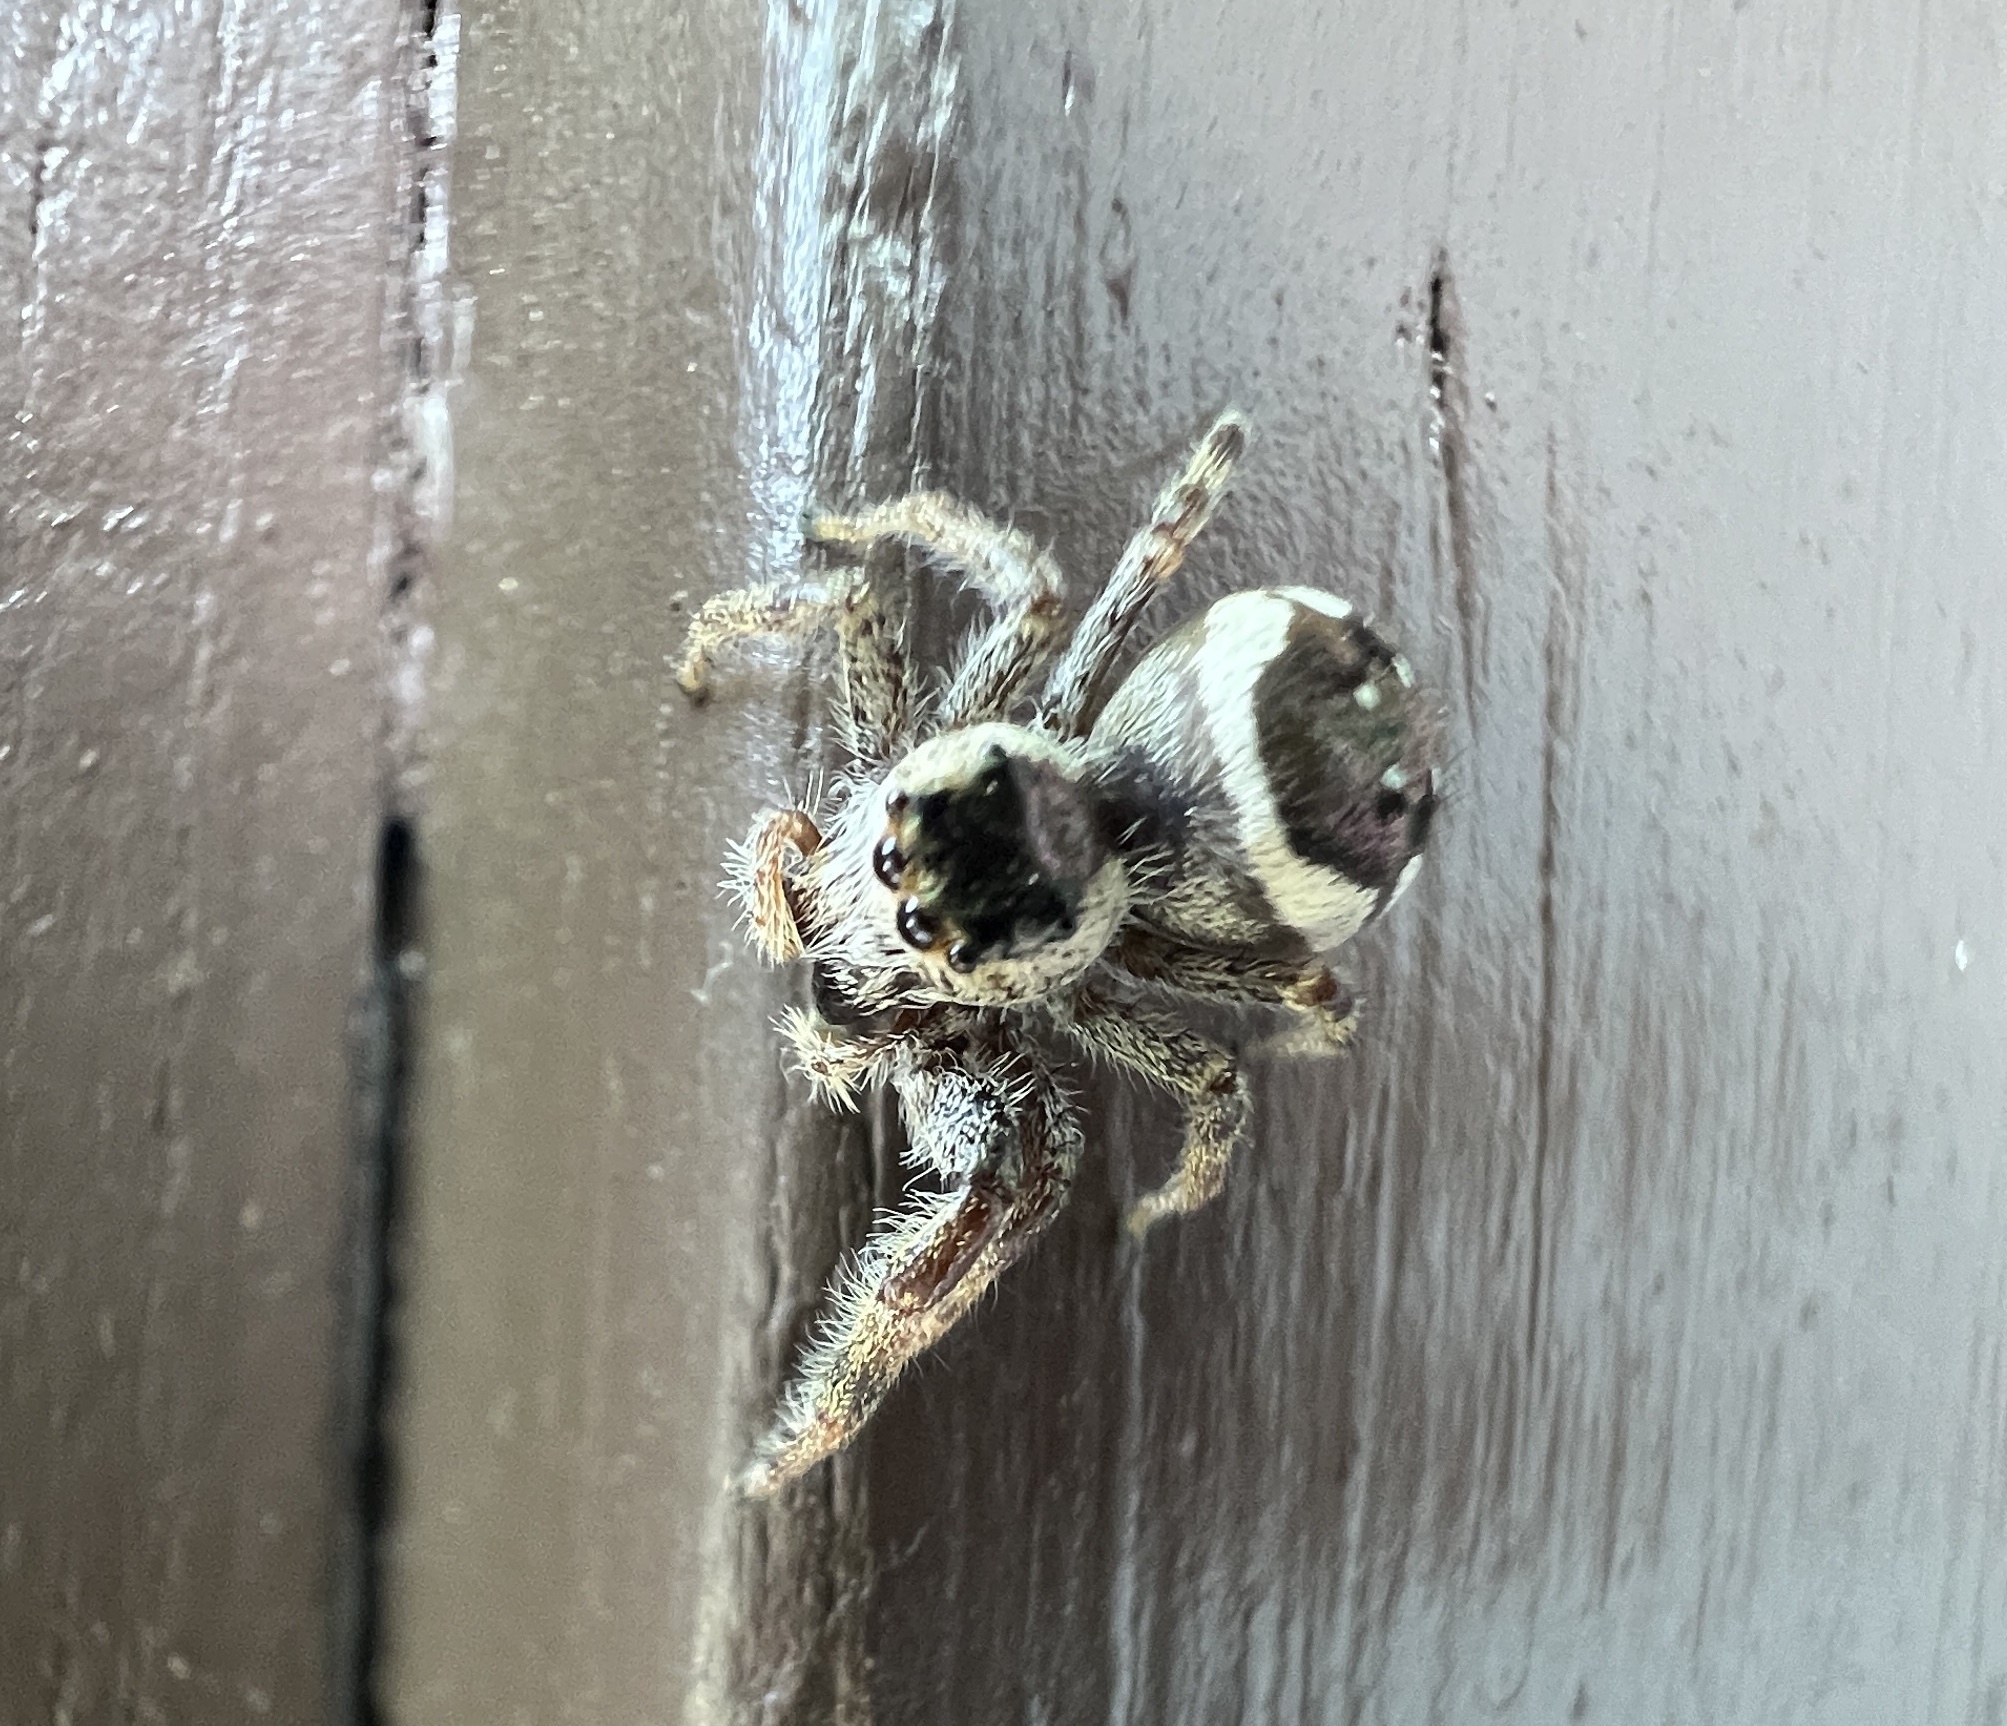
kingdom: Animalia
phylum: Arthropoda
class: Arachnida
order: Araneae
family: Salticidae
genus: Paraphidippus
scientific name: Paraphidippus aurantius
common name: Jumping spiders
